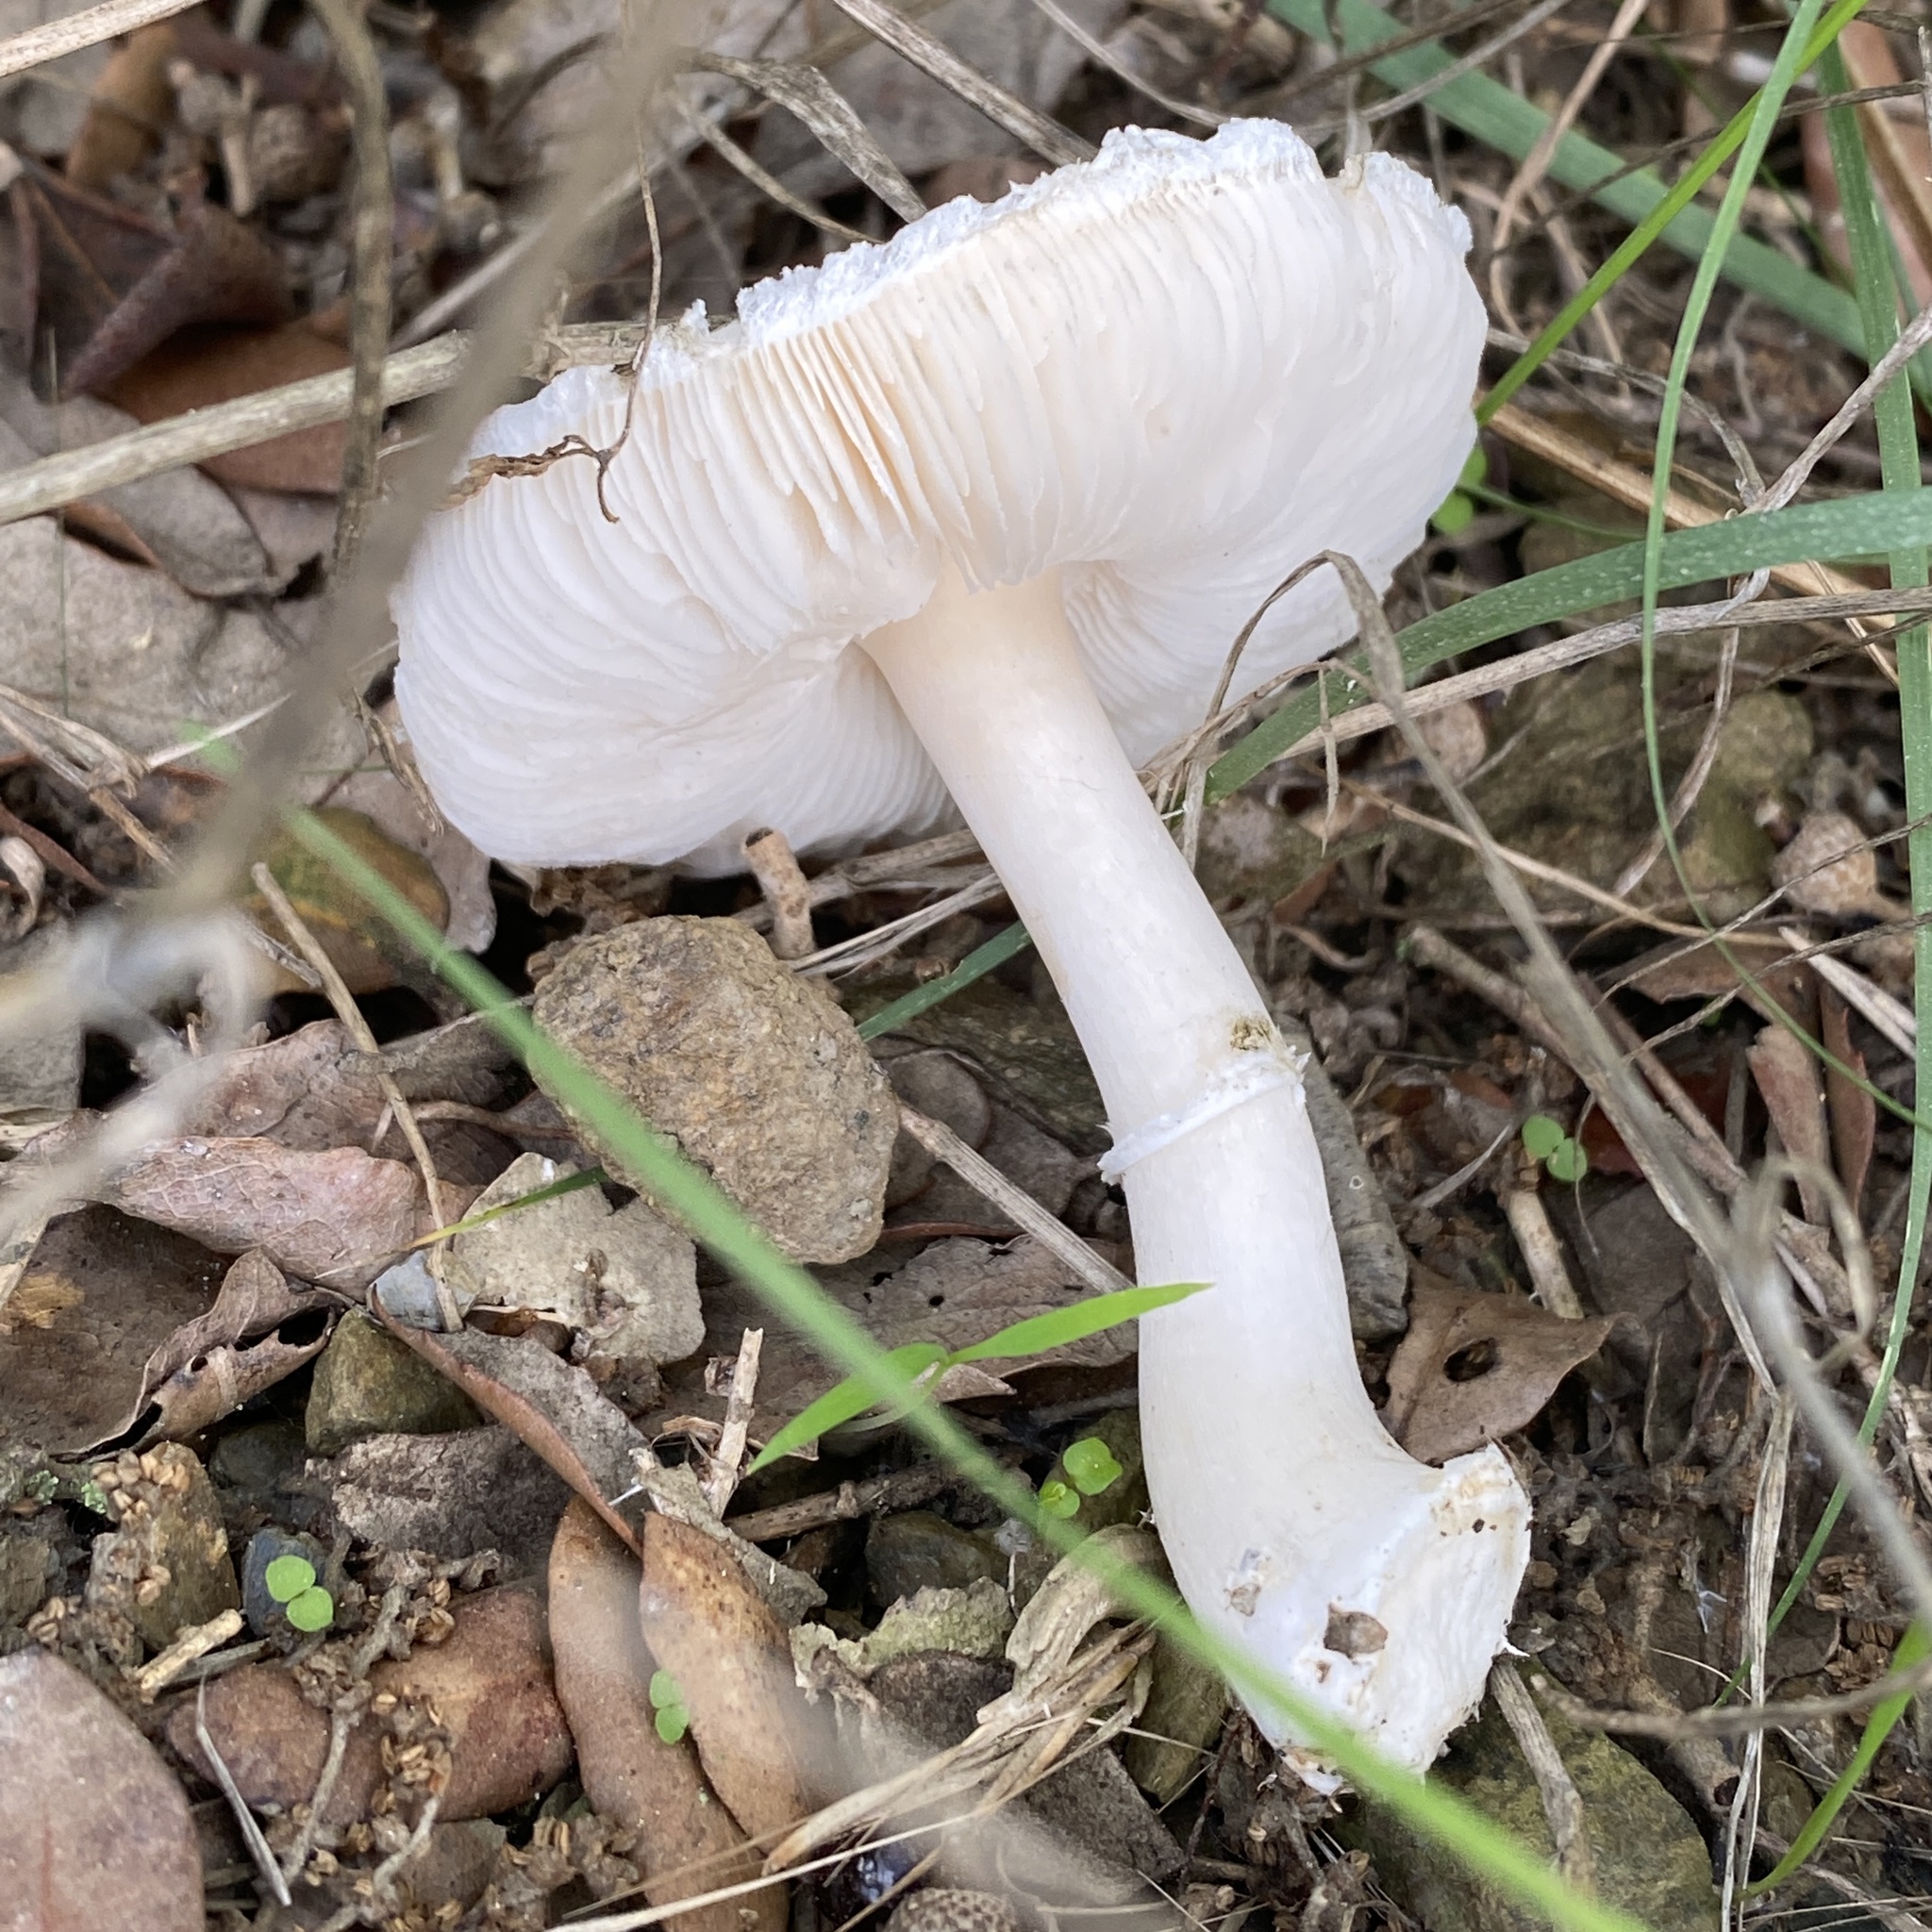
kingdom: Fungi
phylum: Basidiomycota
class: Agaricomycetes
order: Agaricales
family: Agaricaceae
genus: Leucoagaricus
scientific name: Leucoagaricus leucothites
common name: White dapperling
